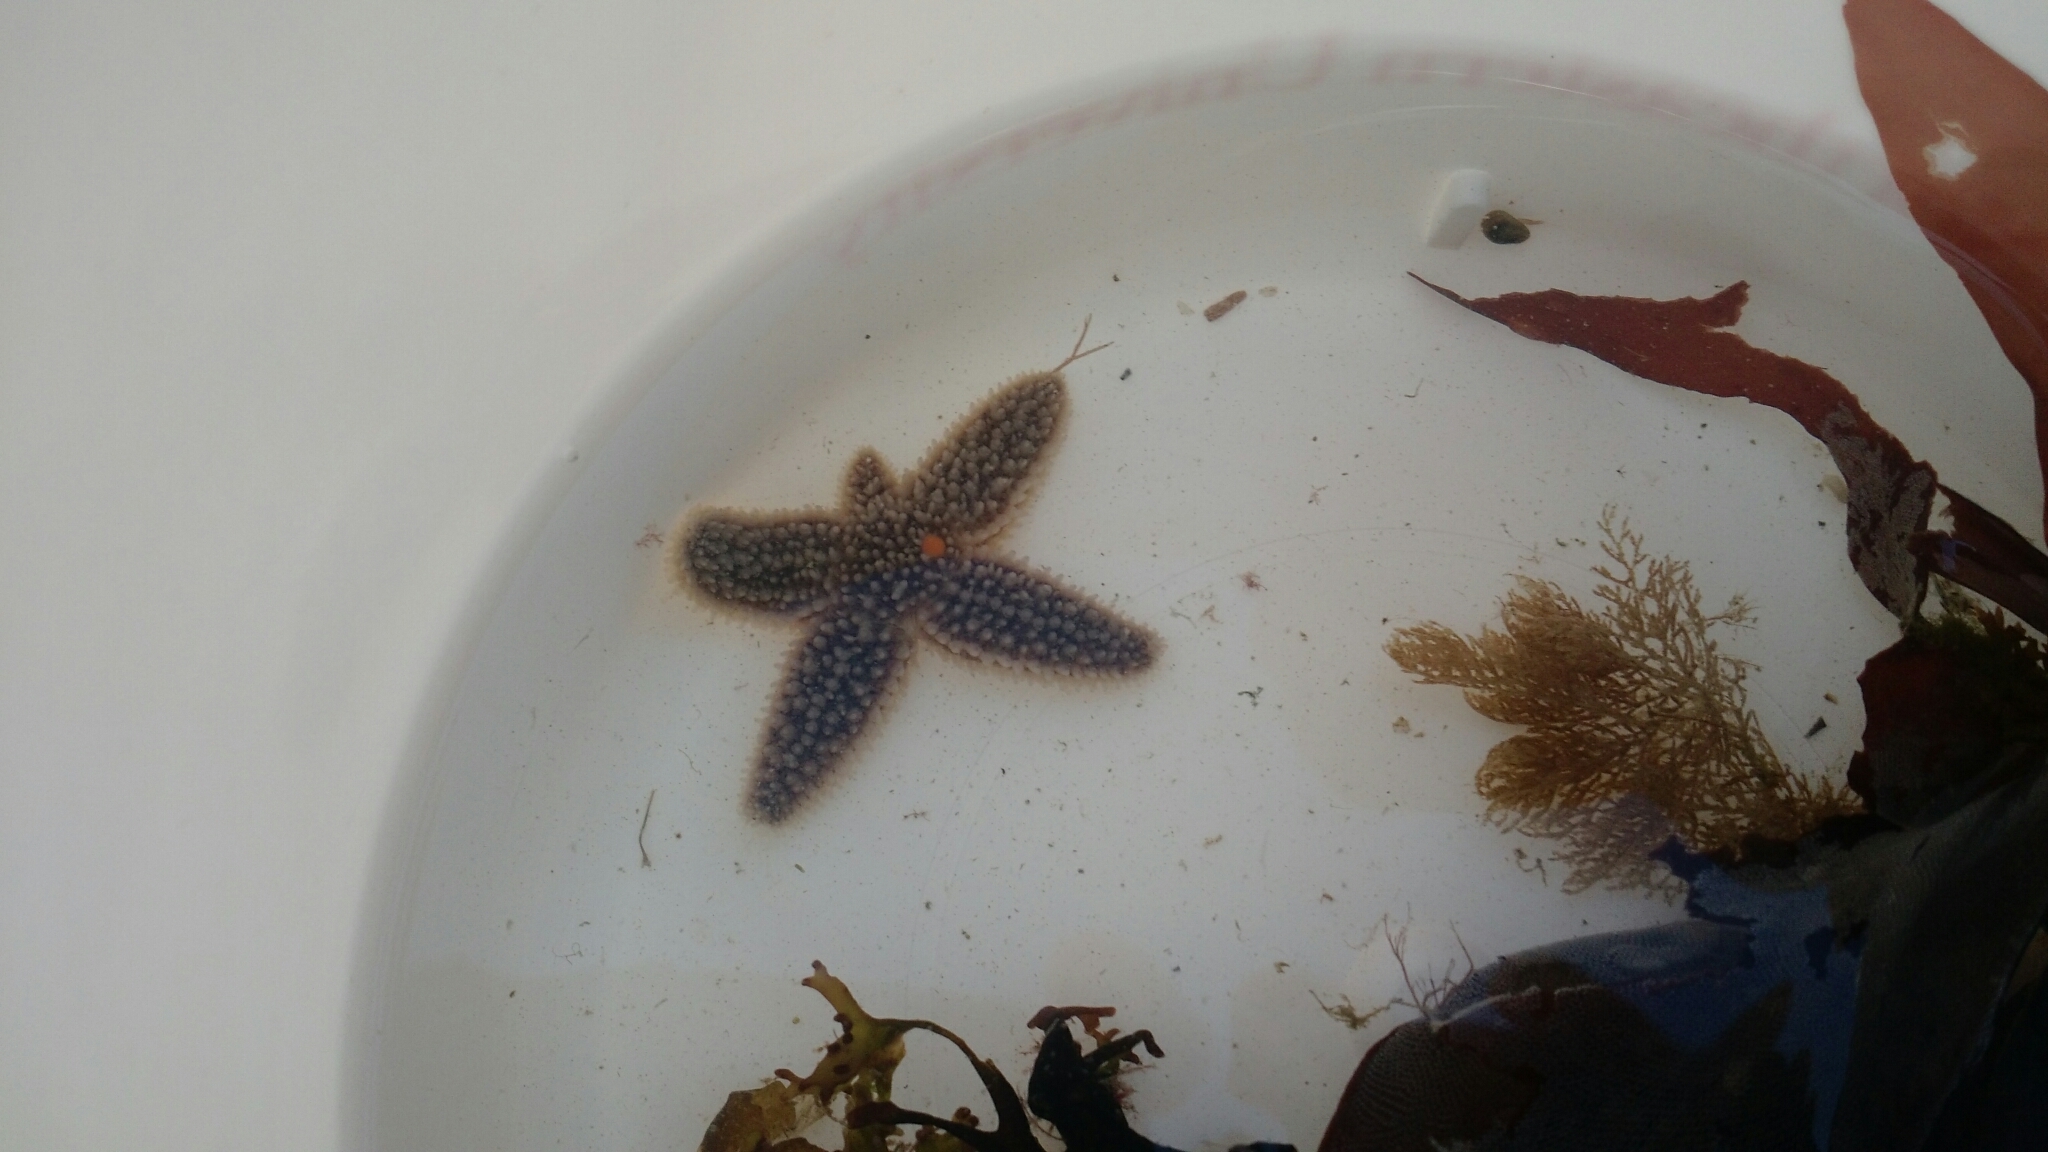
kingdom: Animalia
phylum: Echinodermata
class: Asteroidea
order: Forcipulatida
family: Asteriidae
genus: Asterias
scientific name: Asterias rubens
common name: Common starfish
